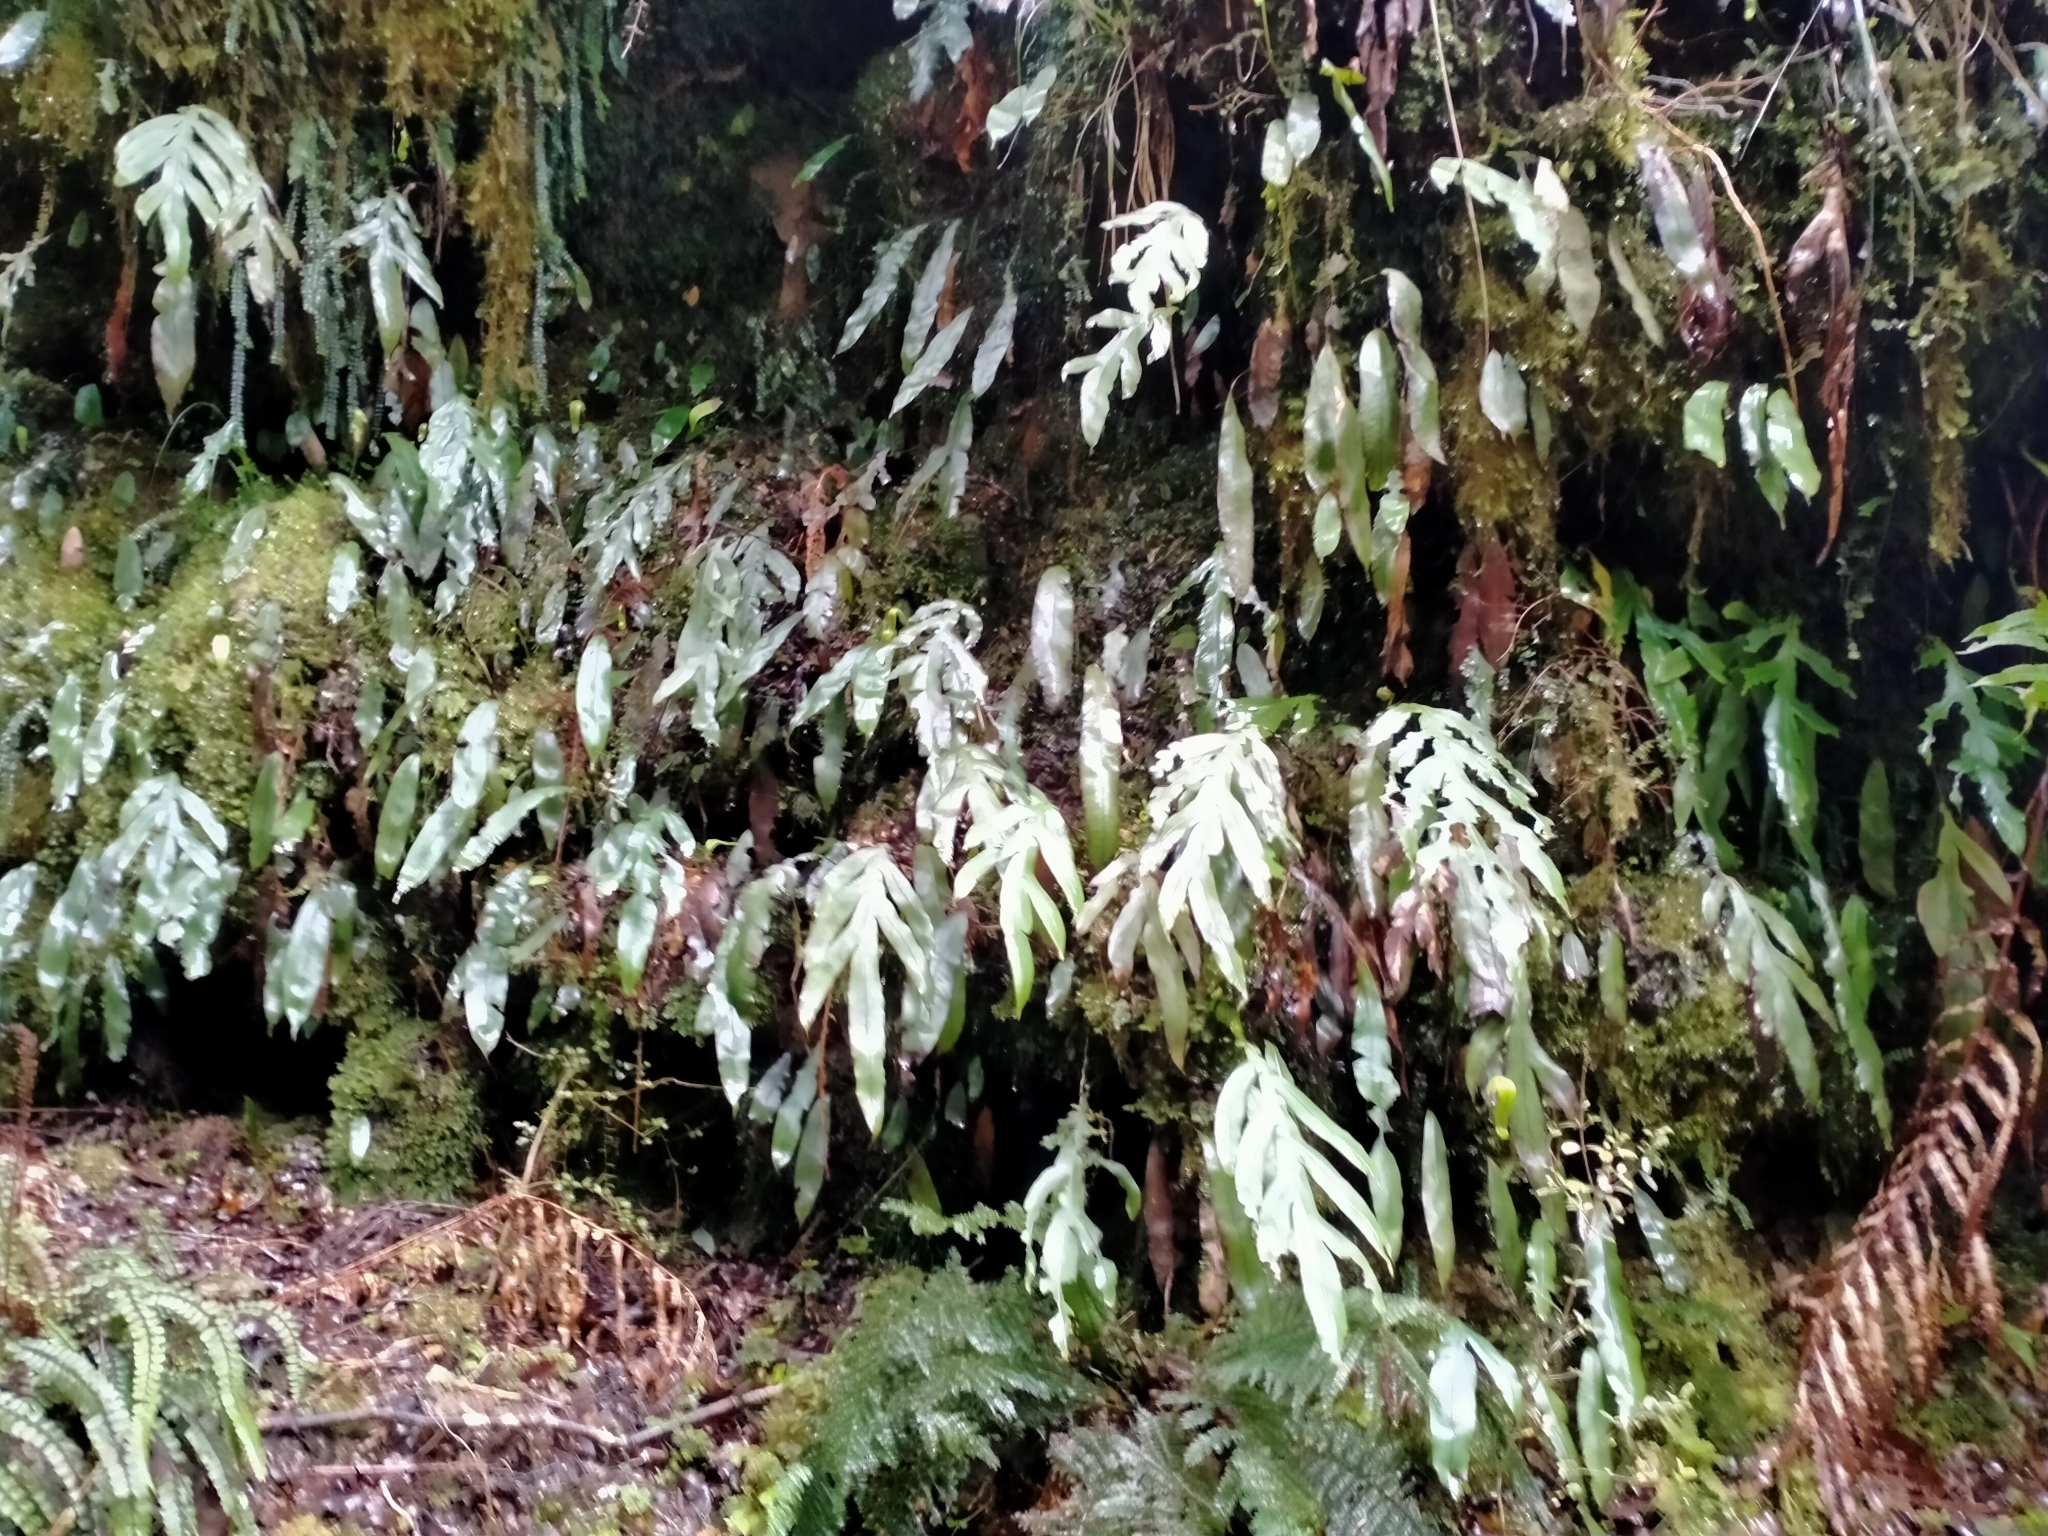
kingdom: Plantae
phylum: Tracheophyta
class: Polypodiopsida
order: Polypodiales
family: Blechnaceae
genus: Austroblechnum
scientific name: Austroblechnum colensoi
